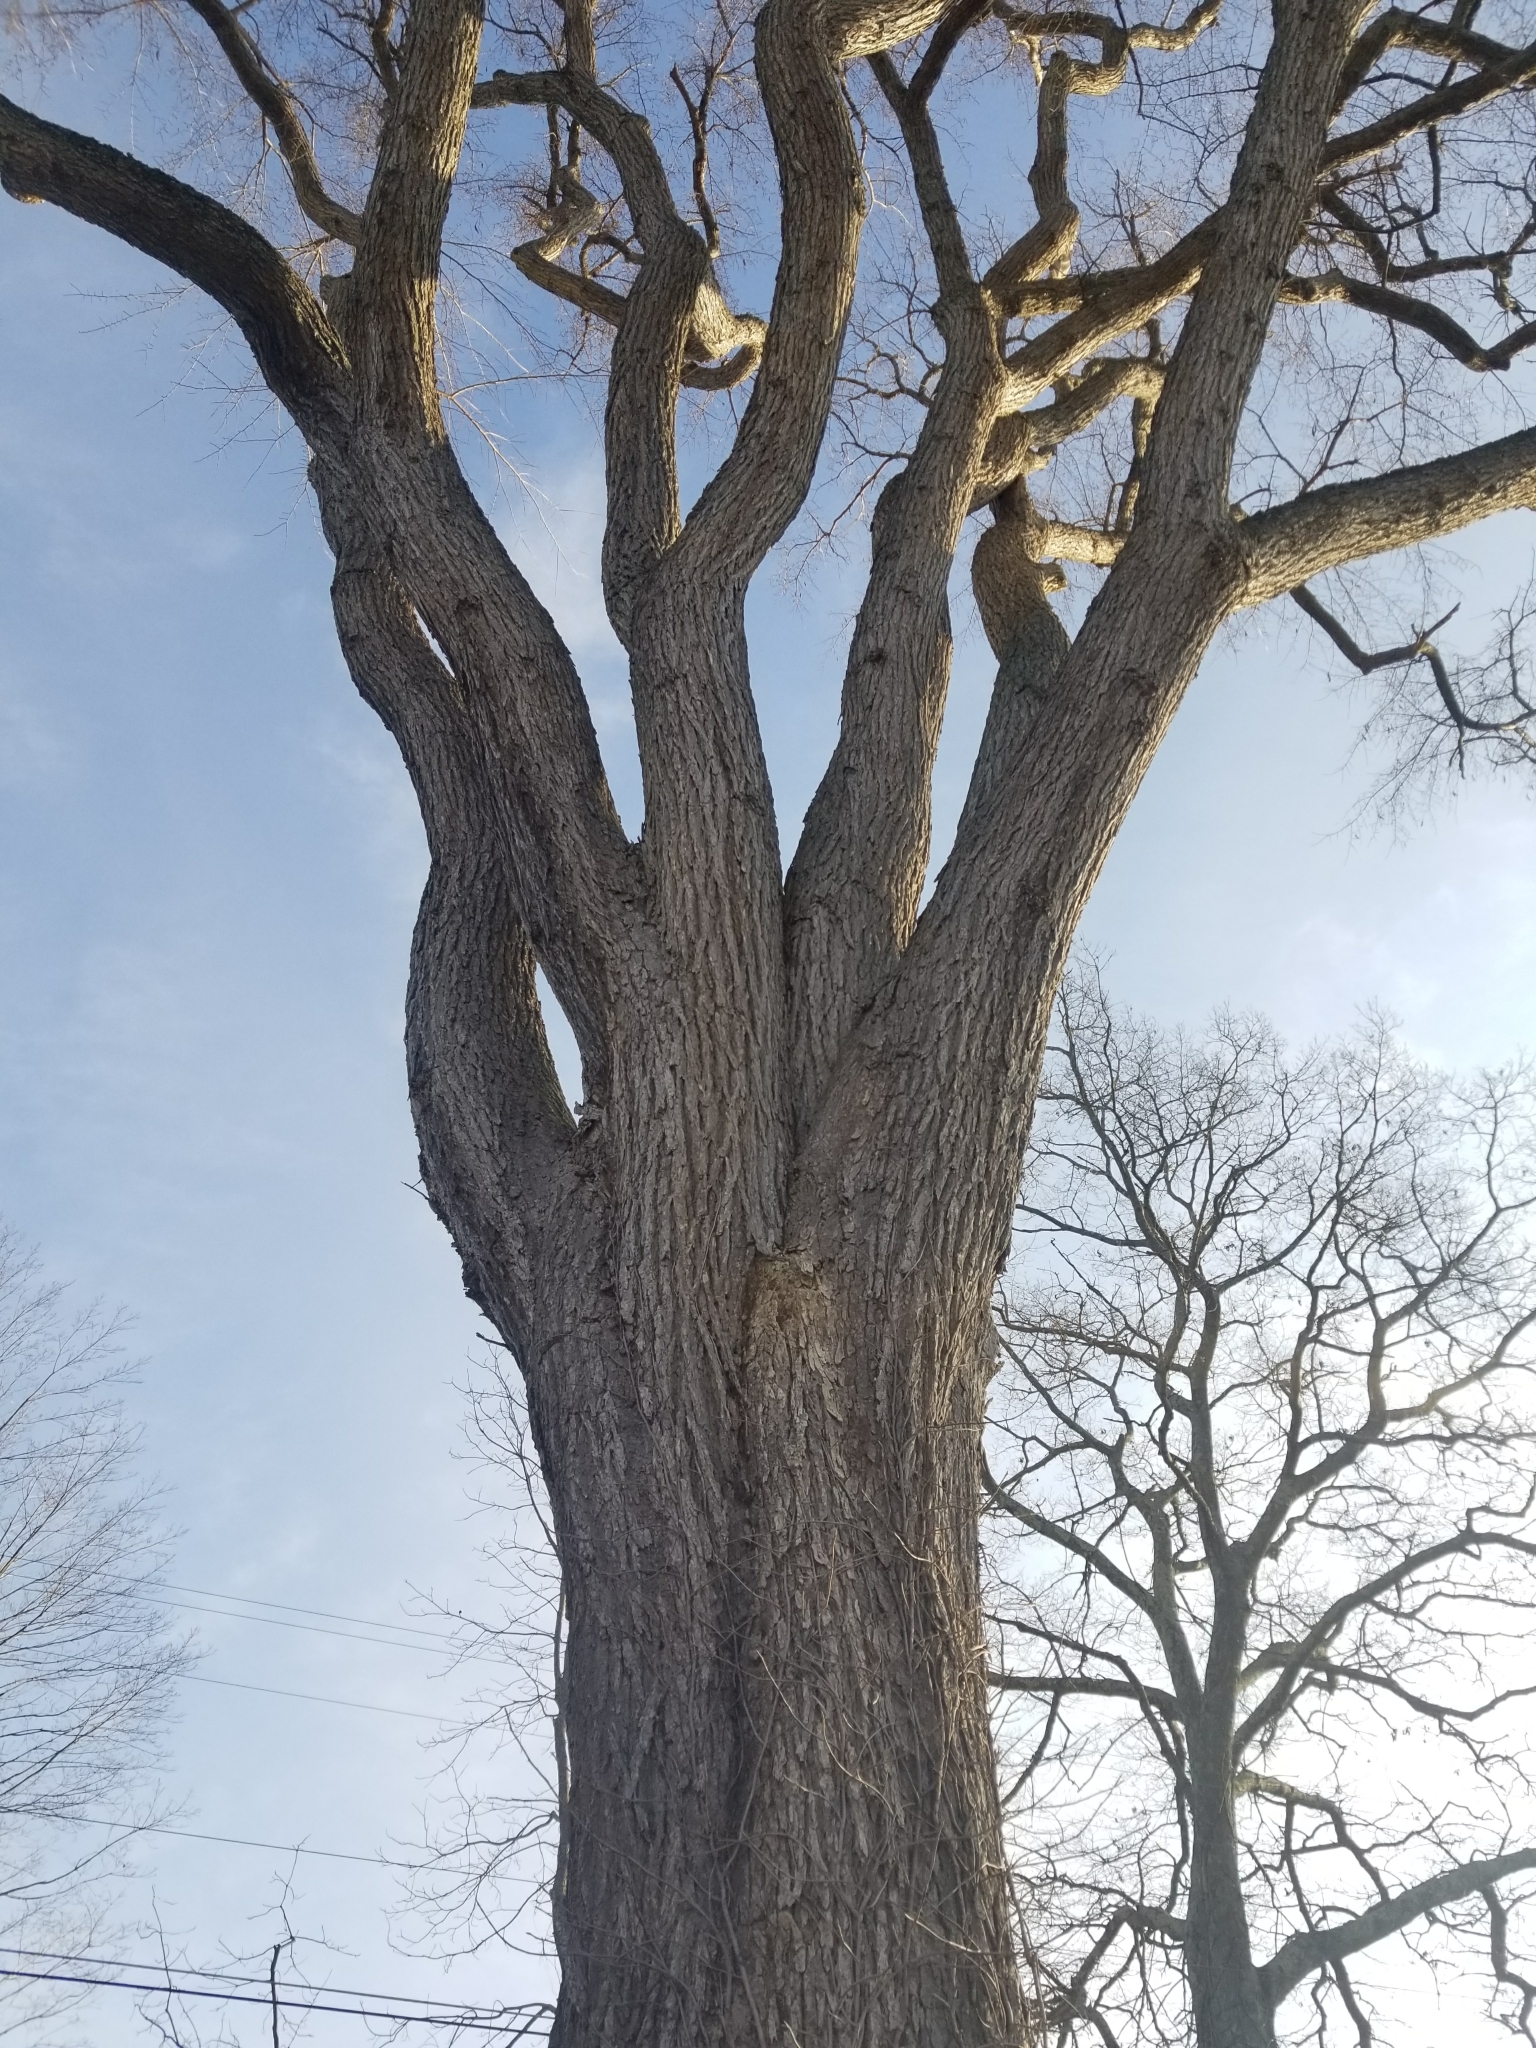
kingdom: Plantae
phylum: Tracheophyta
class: Magnoliopsida
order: Rosales
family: Ulmaceae
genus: Ulmus
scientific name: Ulmus americana
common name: American elm
